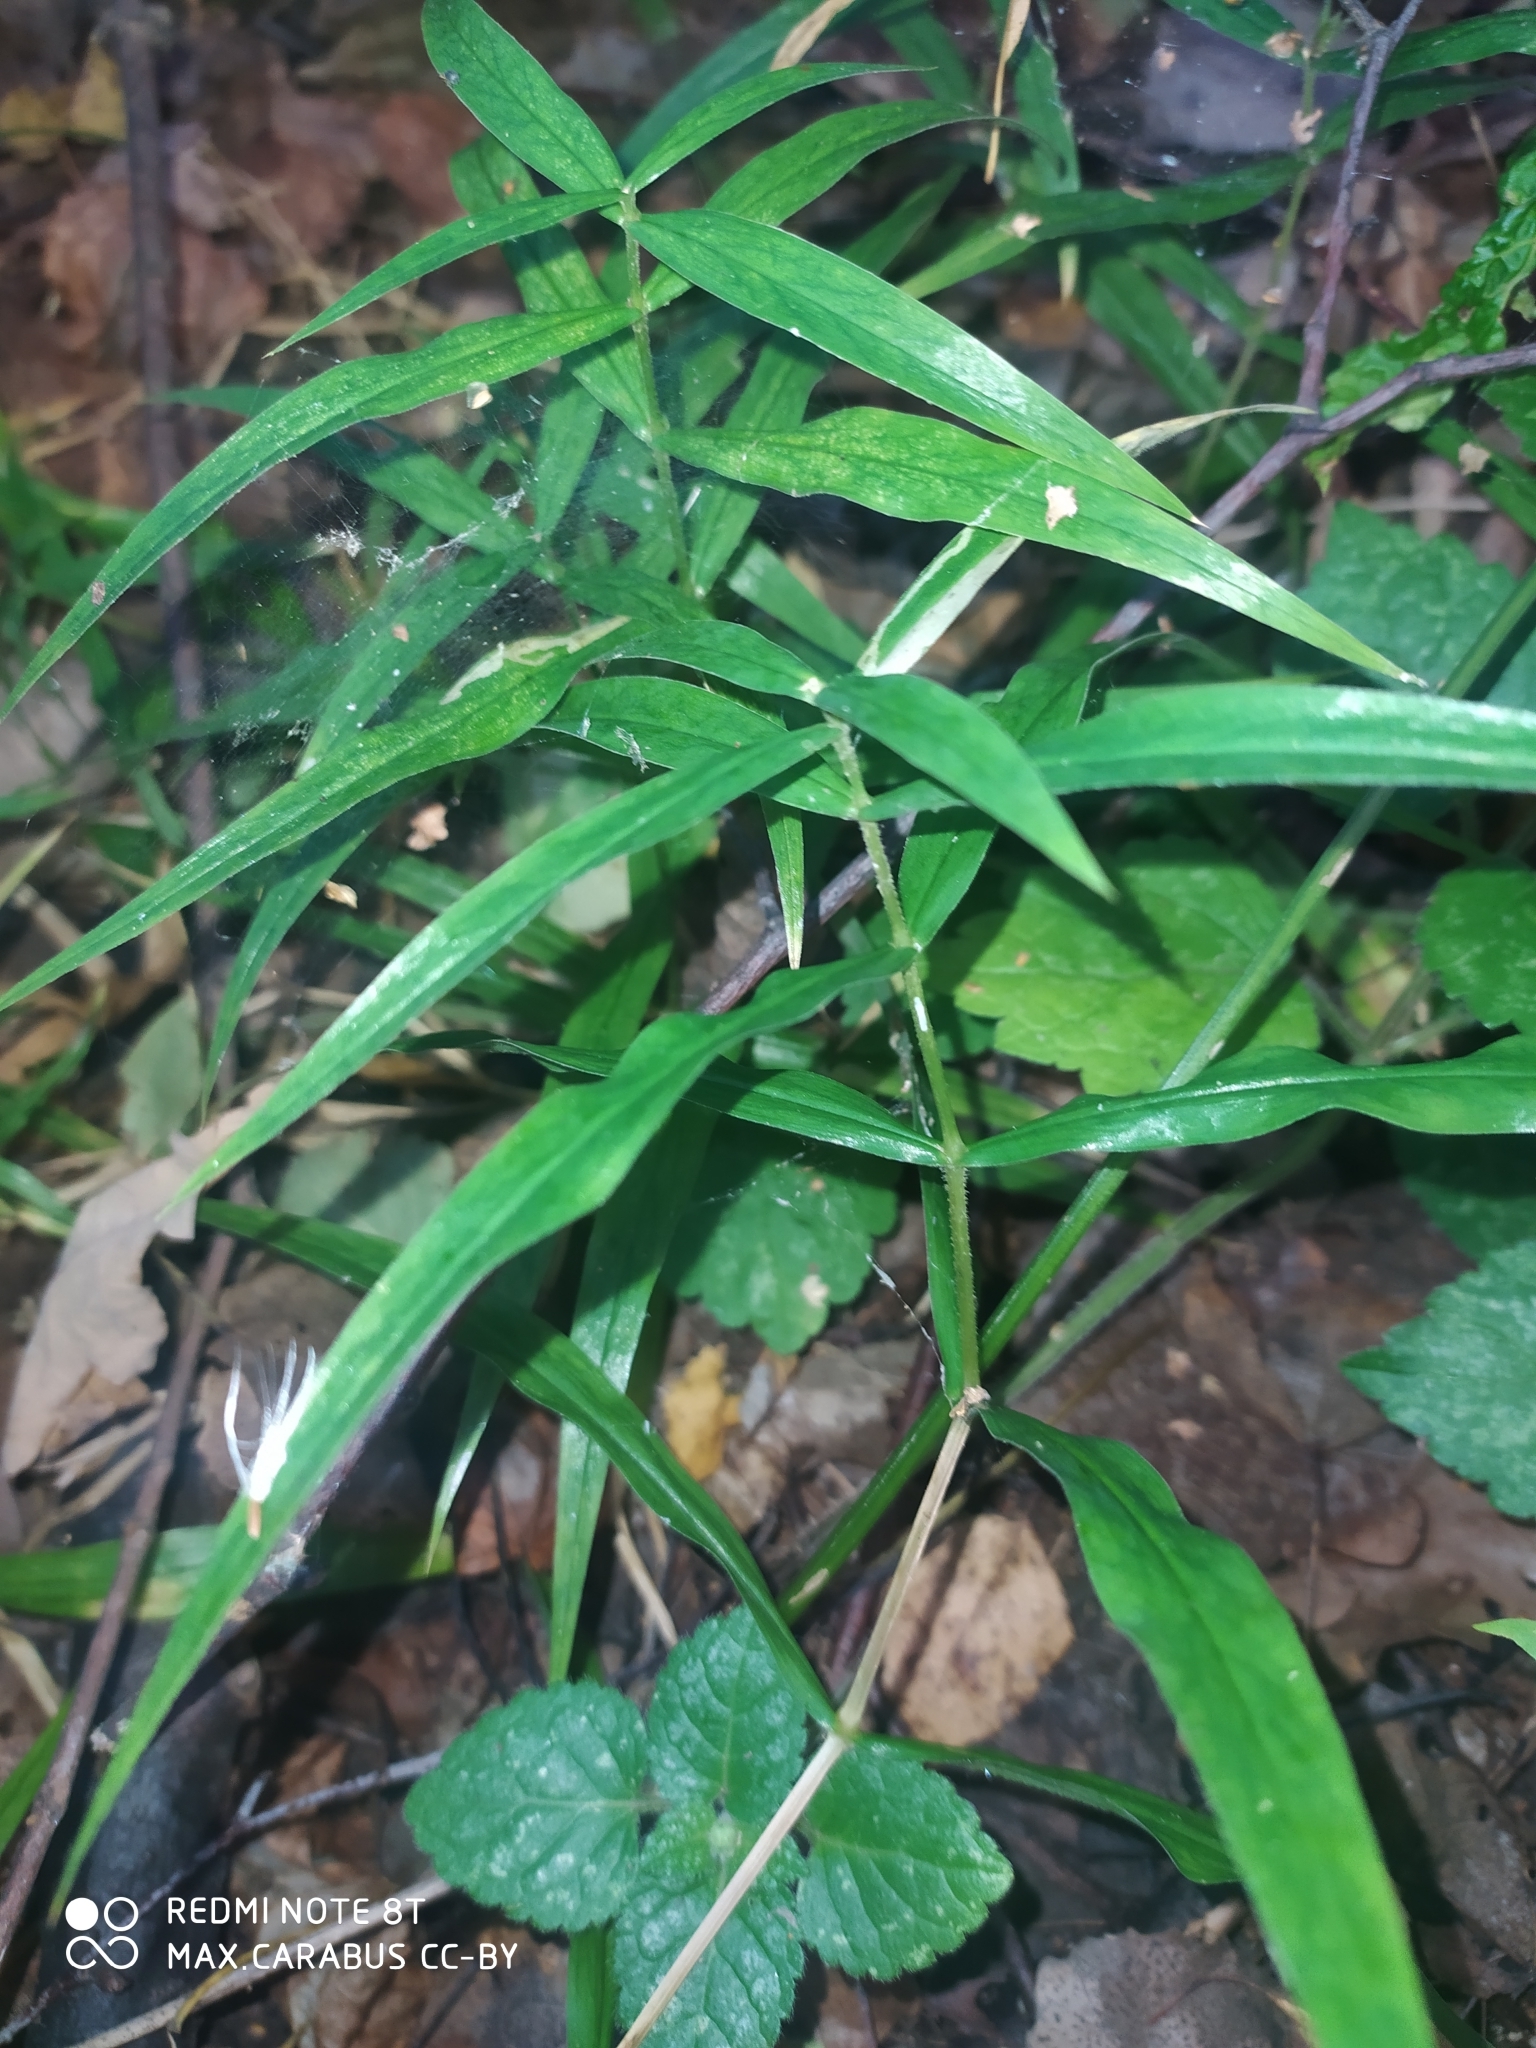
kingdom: Plantae
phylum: Tracheophyta
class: Magnoliopsida
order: Caryophyllales
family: Caryophyllaceae
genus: Rabelera
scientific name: Rabelera holostea
